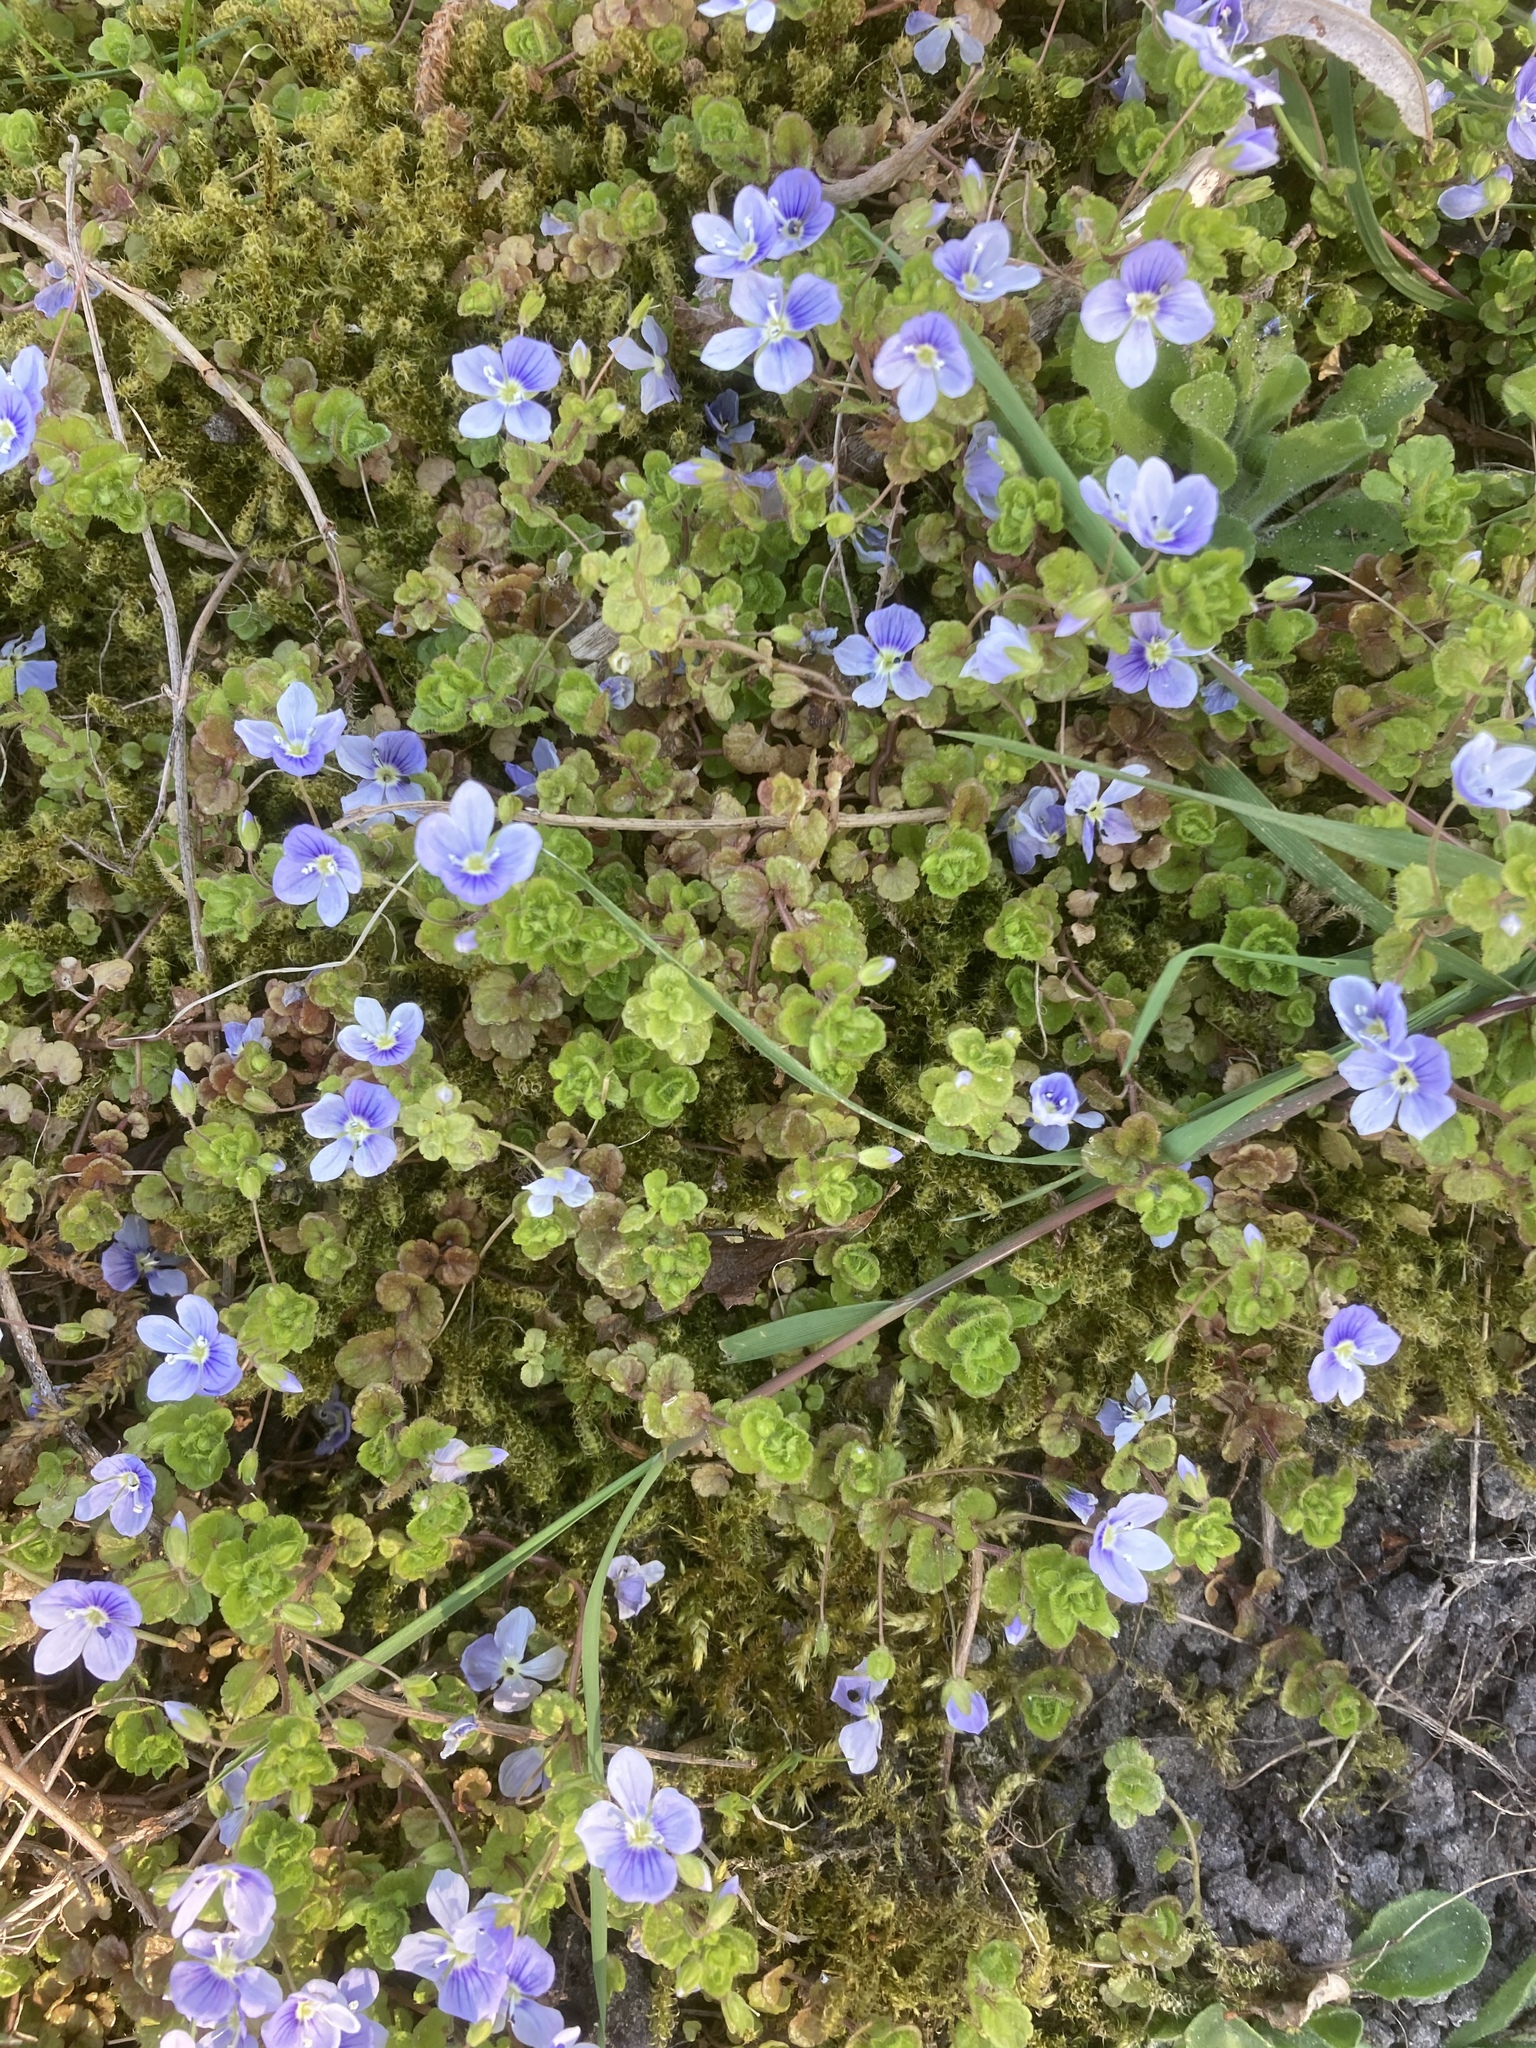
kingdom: Plantae
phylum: Tracheophyta
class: Magnoliopsida
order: Lamiales
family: Plantaginaceae
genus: Veronica
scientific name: Veronica filiformis
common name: Slender speedwell
